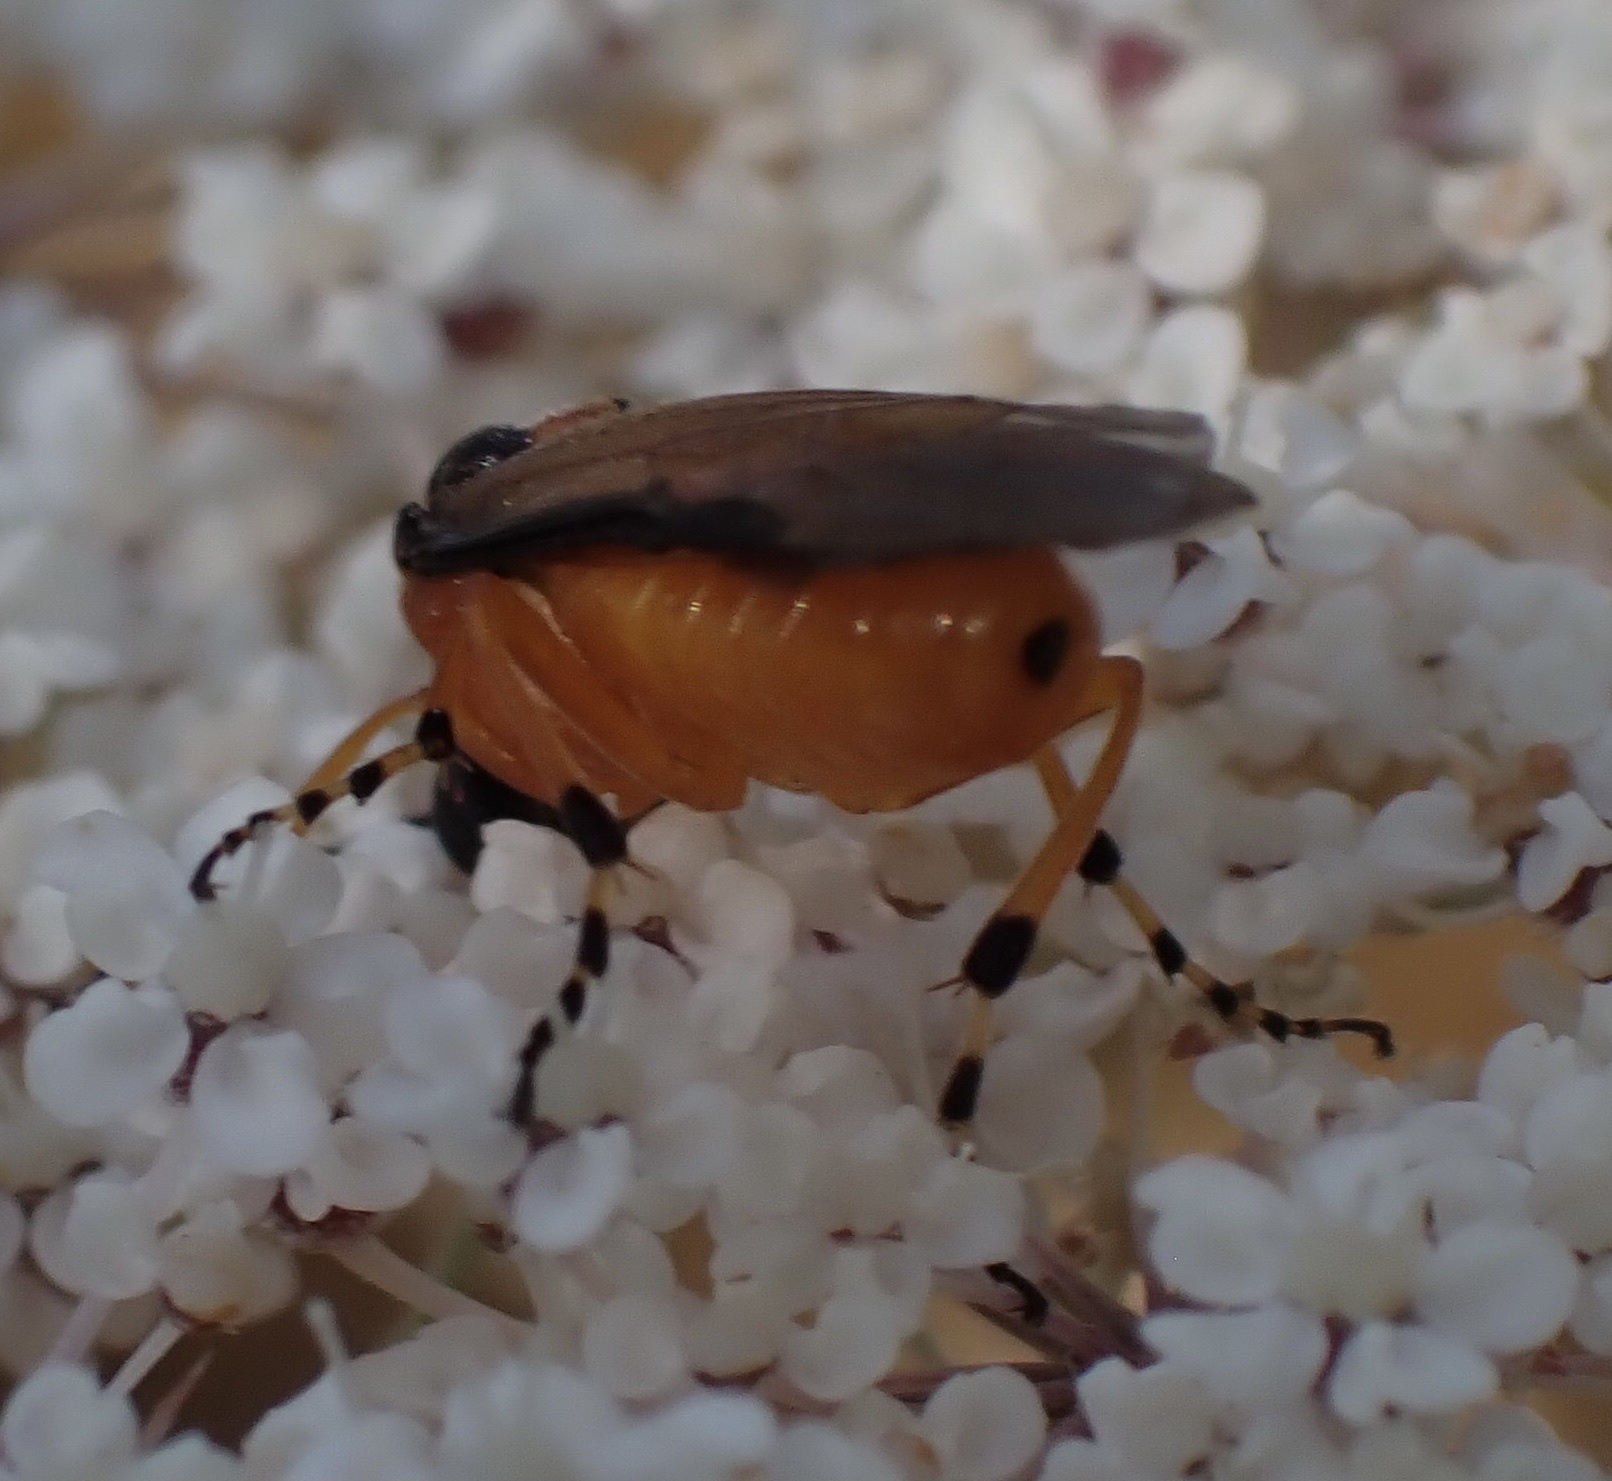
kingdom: Animalia
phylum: Arthropoda
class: Insecta
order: Hymenoptera
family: Tenthredinidae
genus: Athalia
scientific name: Athalia rosae
